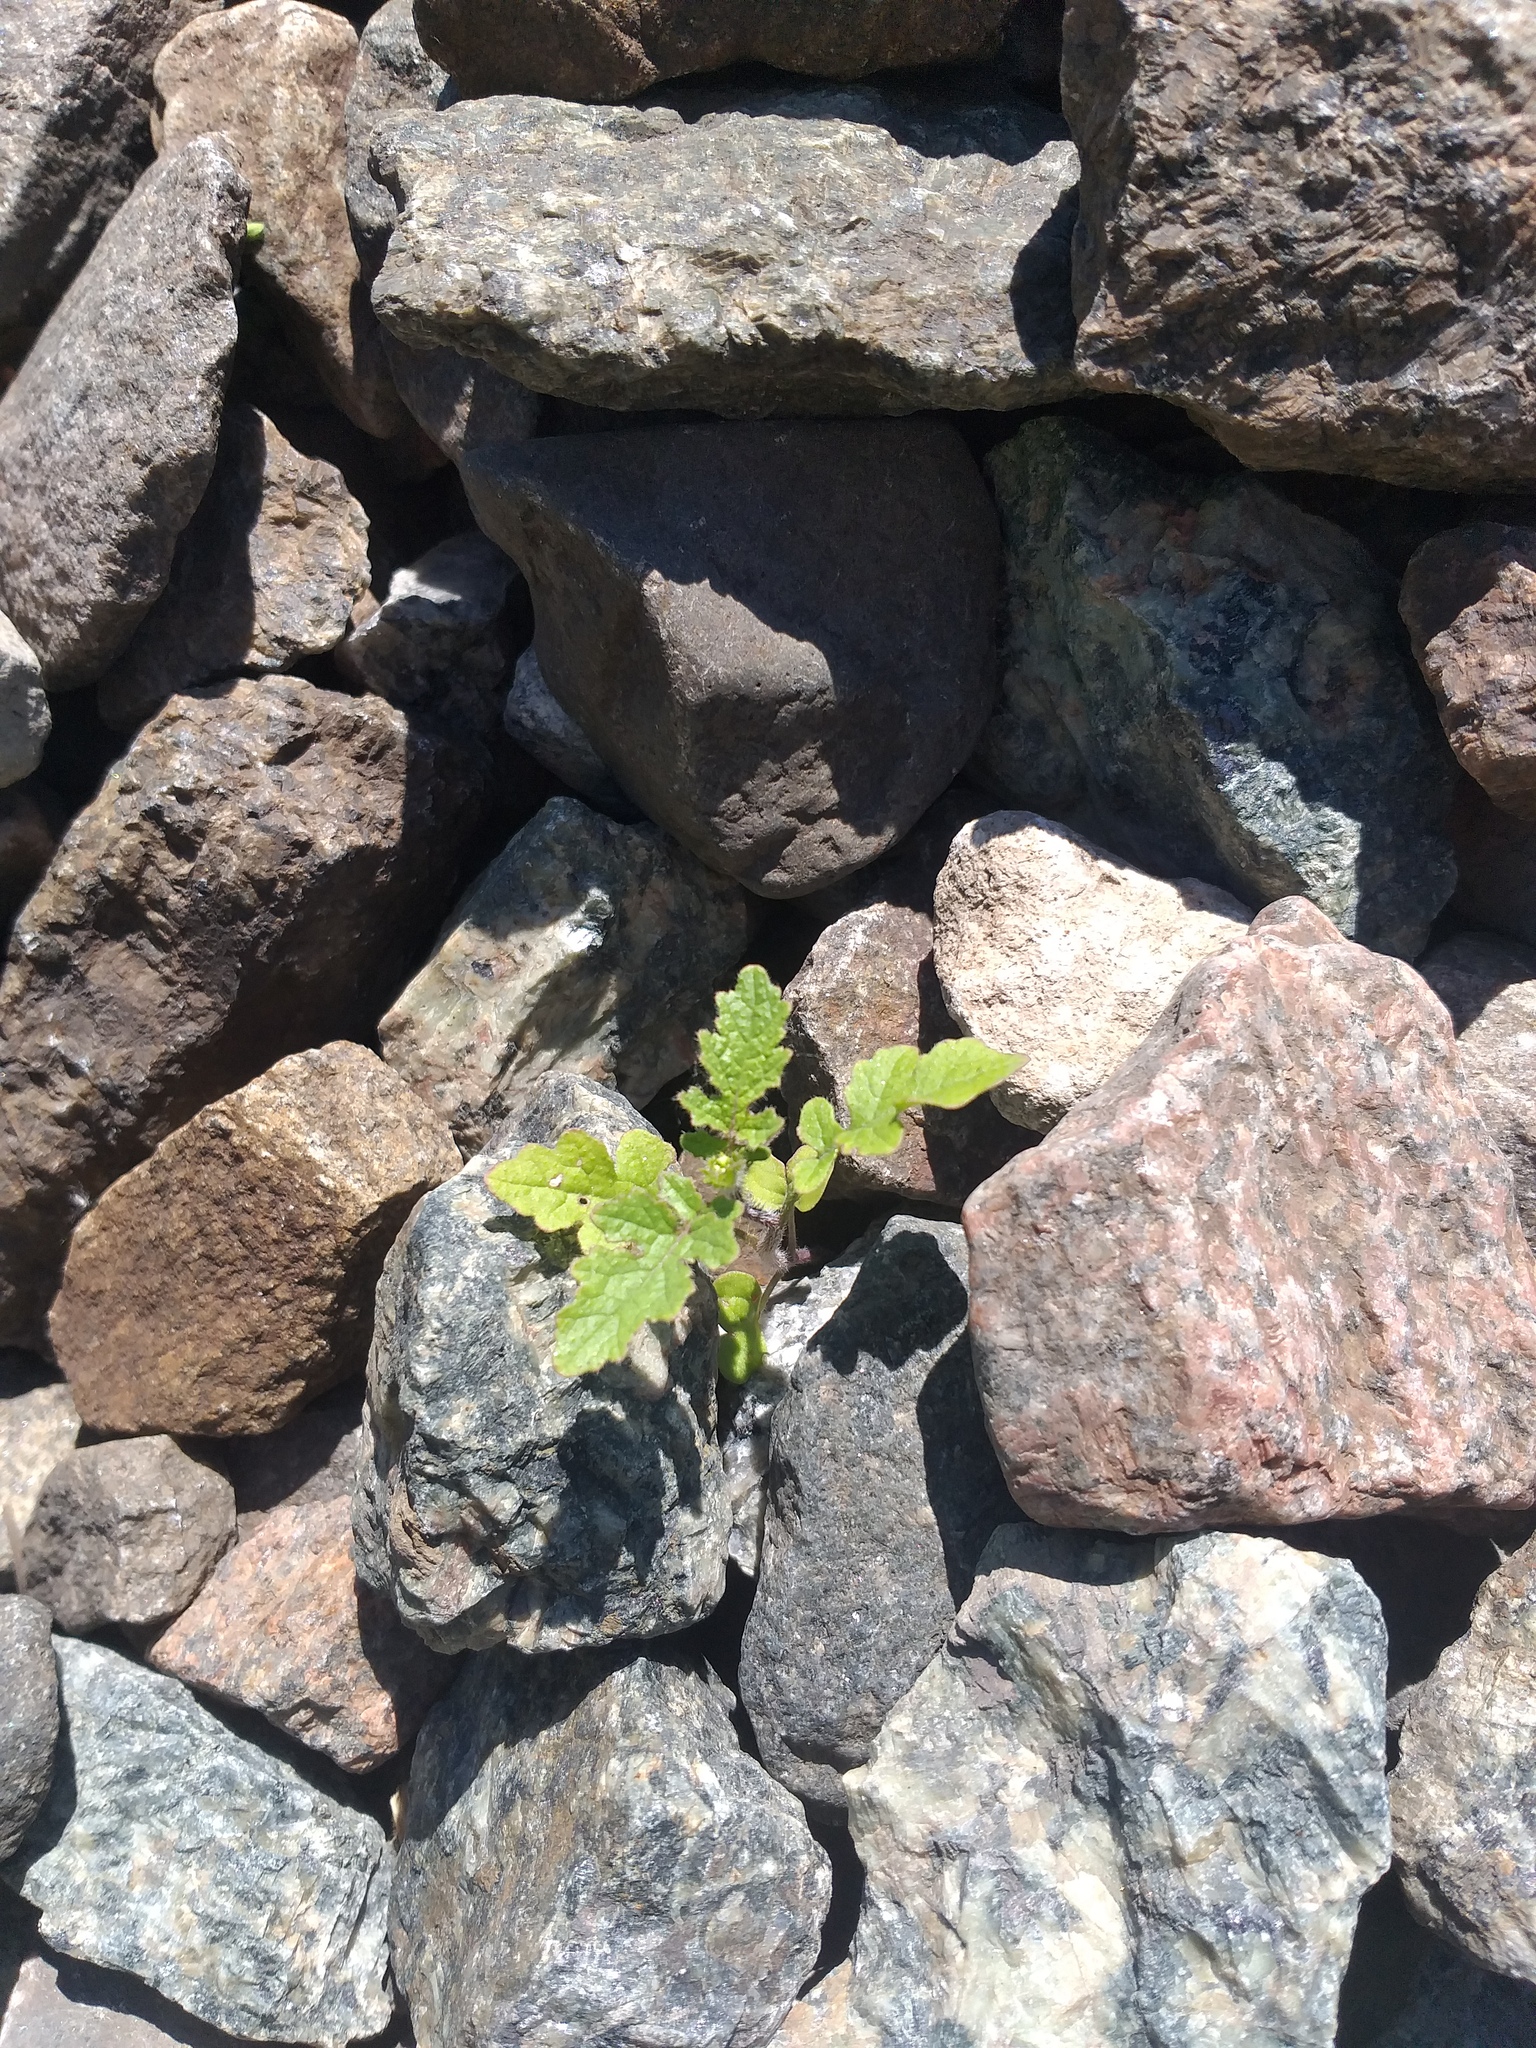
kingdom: Plantae
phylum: Tracheophyta
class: Magnoliopsida
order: Brassicales
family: Brassicaceae
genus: Sinapis
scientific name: Sinapis alba
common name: White mustard
